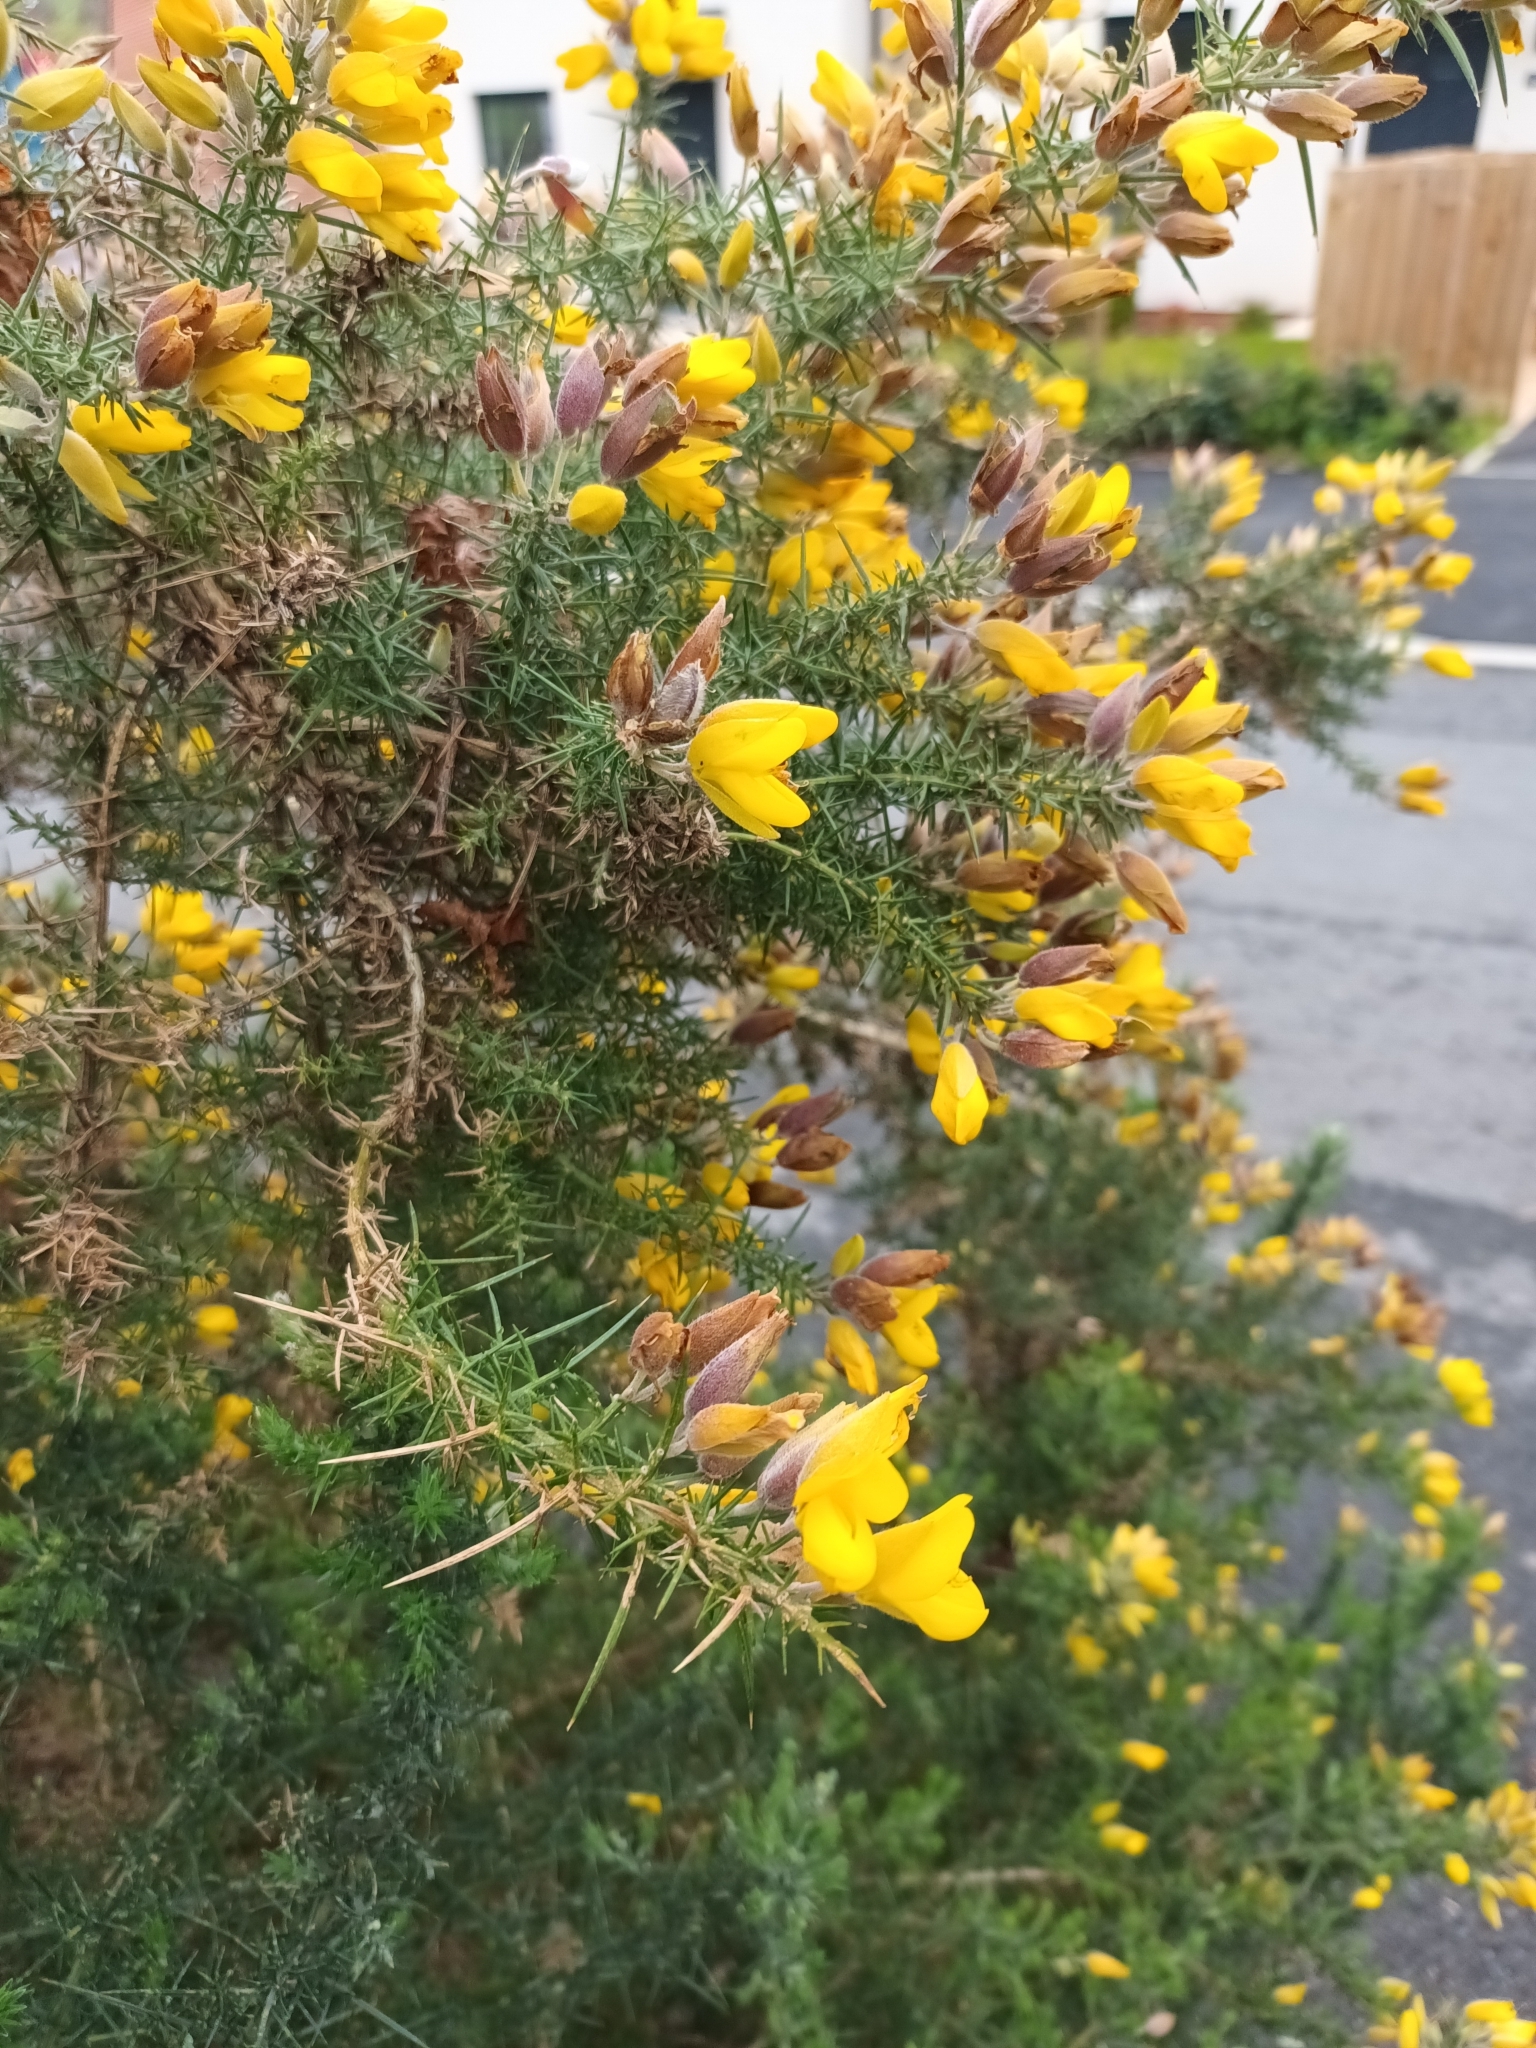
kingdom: Plantae
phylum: Tracheophyta
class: Magnoliopsida
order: Fabales
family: Fabaceae
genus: Ulex
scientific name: Ulex europaeus
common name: Common gorse
